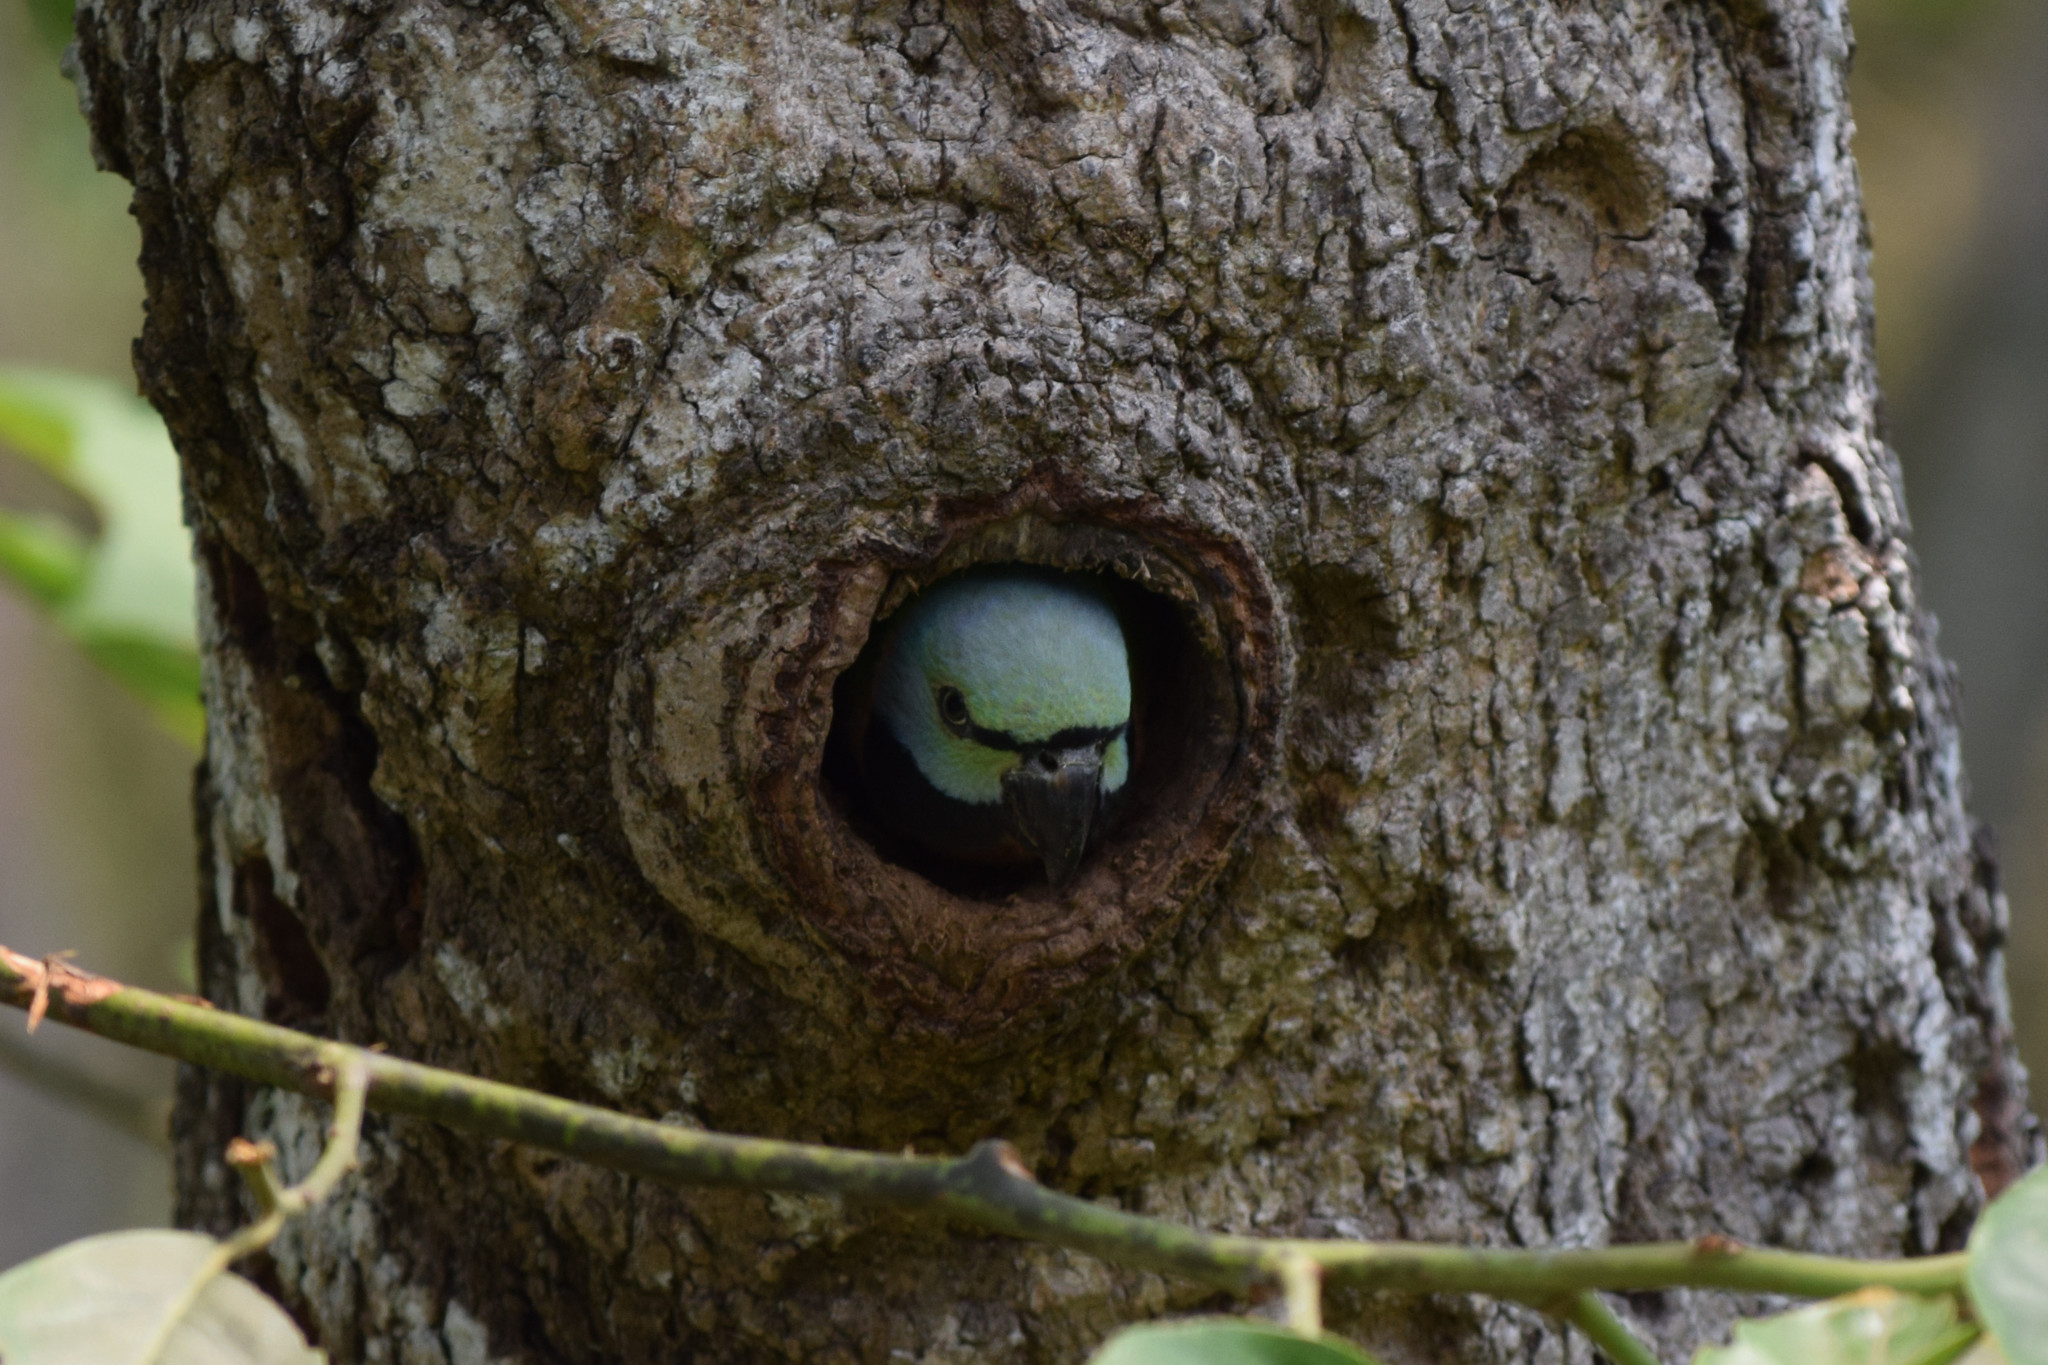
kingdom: Animalia
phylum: Chordata
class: Aves
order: Psittaciformes
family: Psittacidae
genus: Psittacula
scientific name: Psittacula alexandri
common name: Red-breasted parakeet
